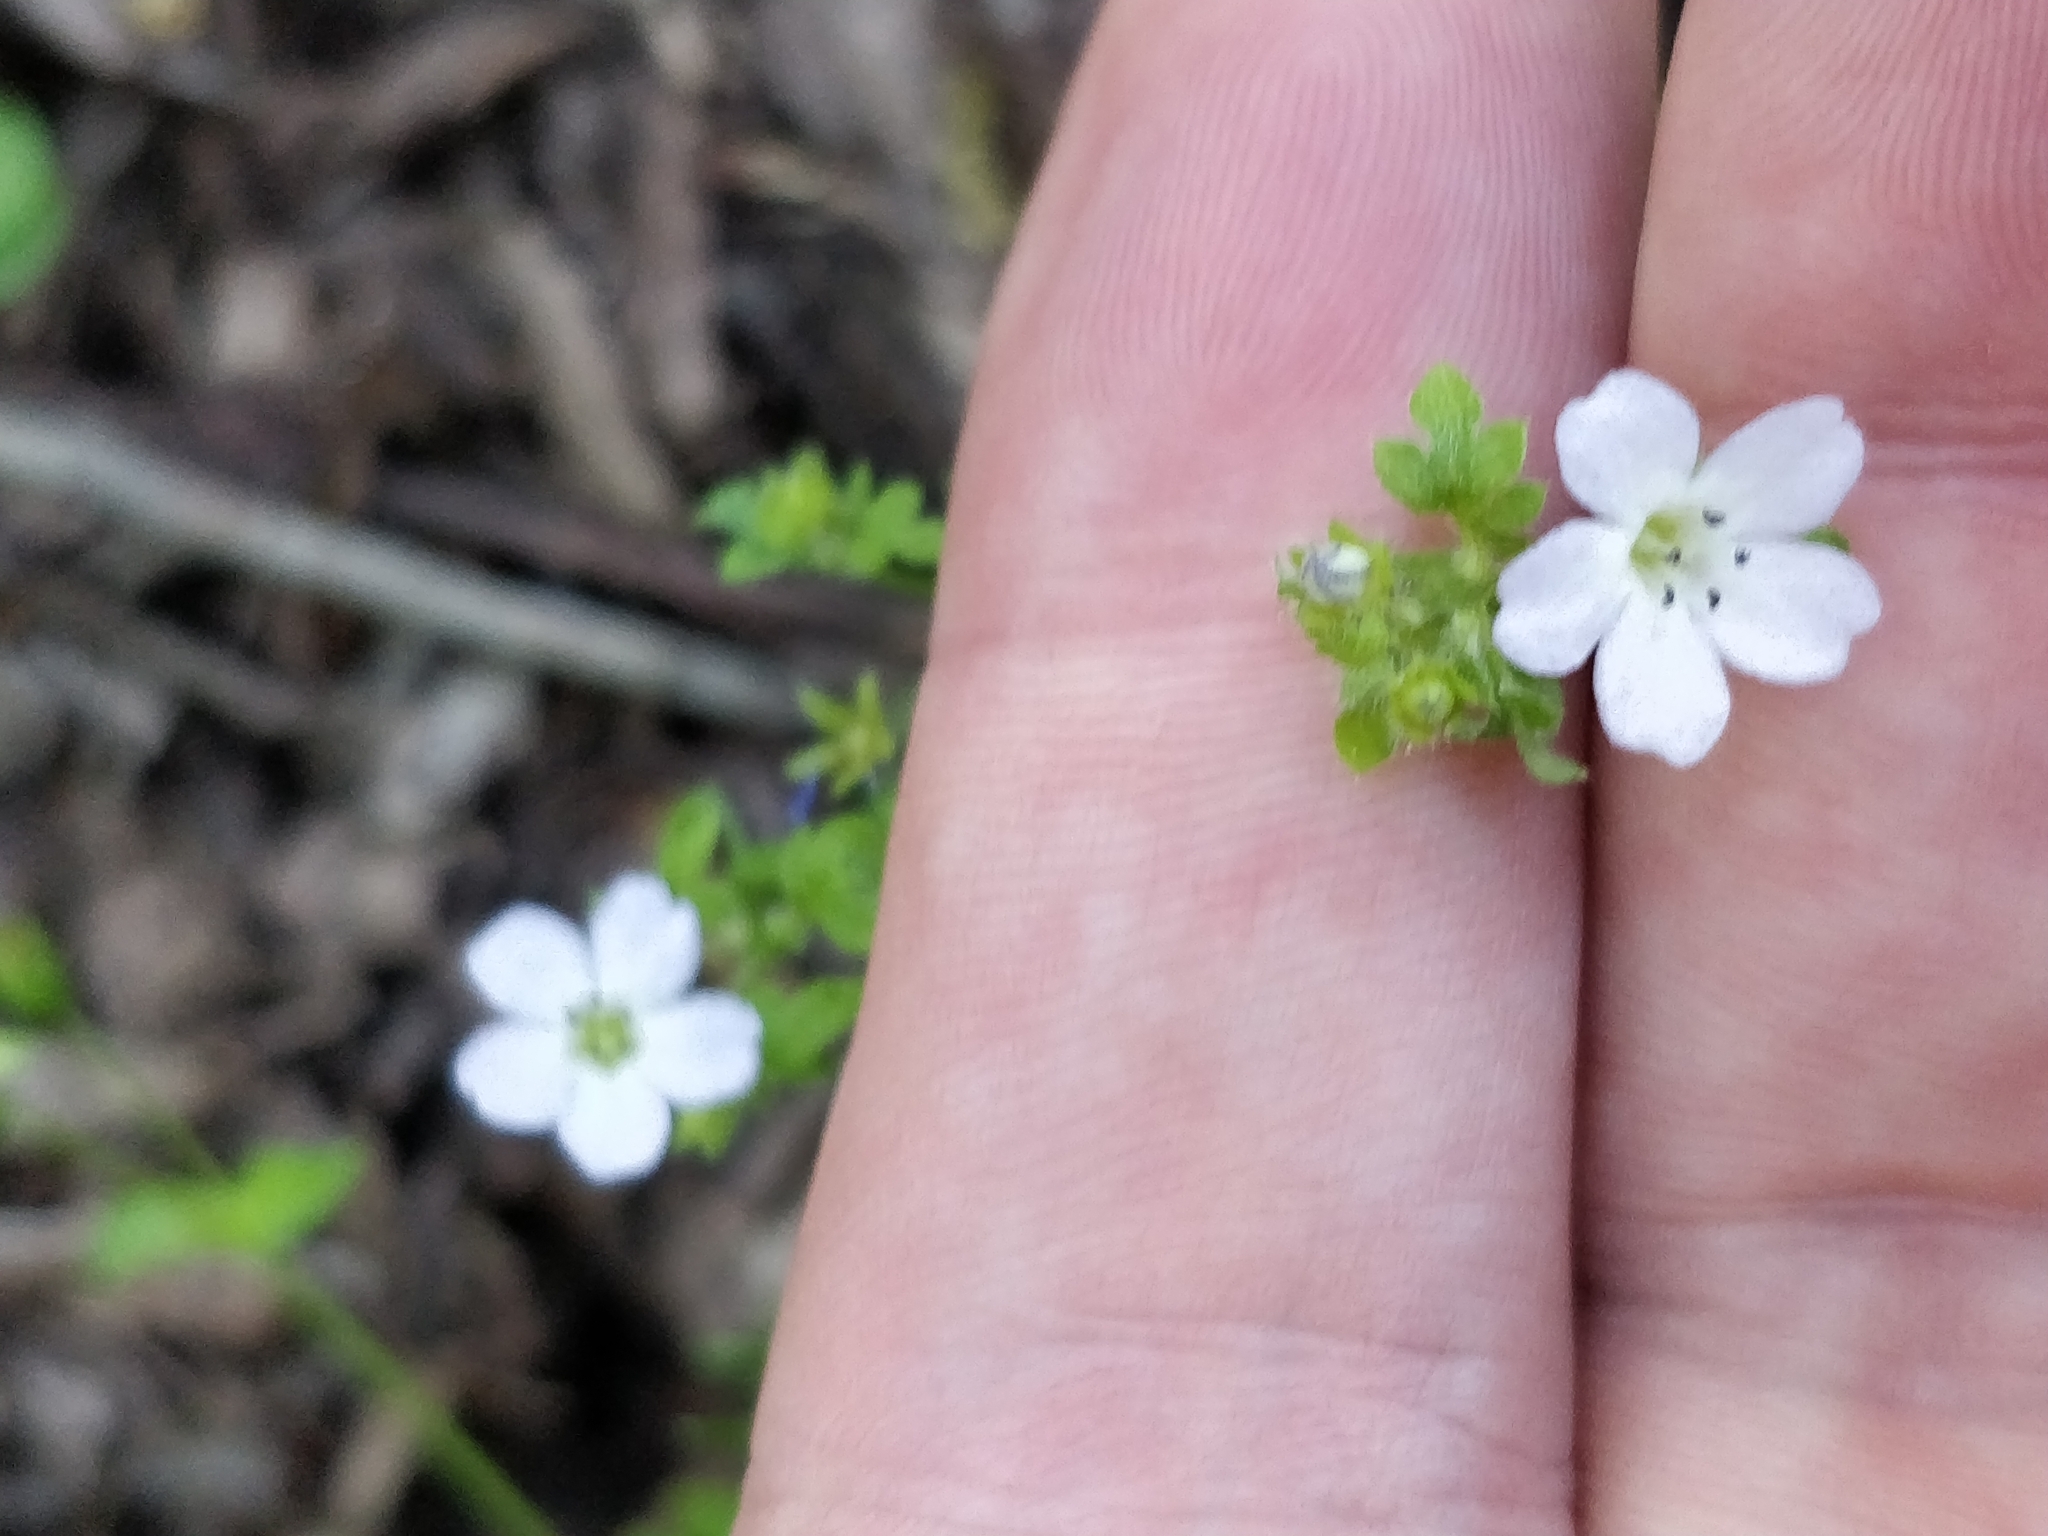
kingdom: Plantae
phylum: Tracheophyta
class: Magnoliopsida
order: Boraginales
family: Hydrophyllaceae
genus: Nemophila
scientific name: Nemophila heterophylla
